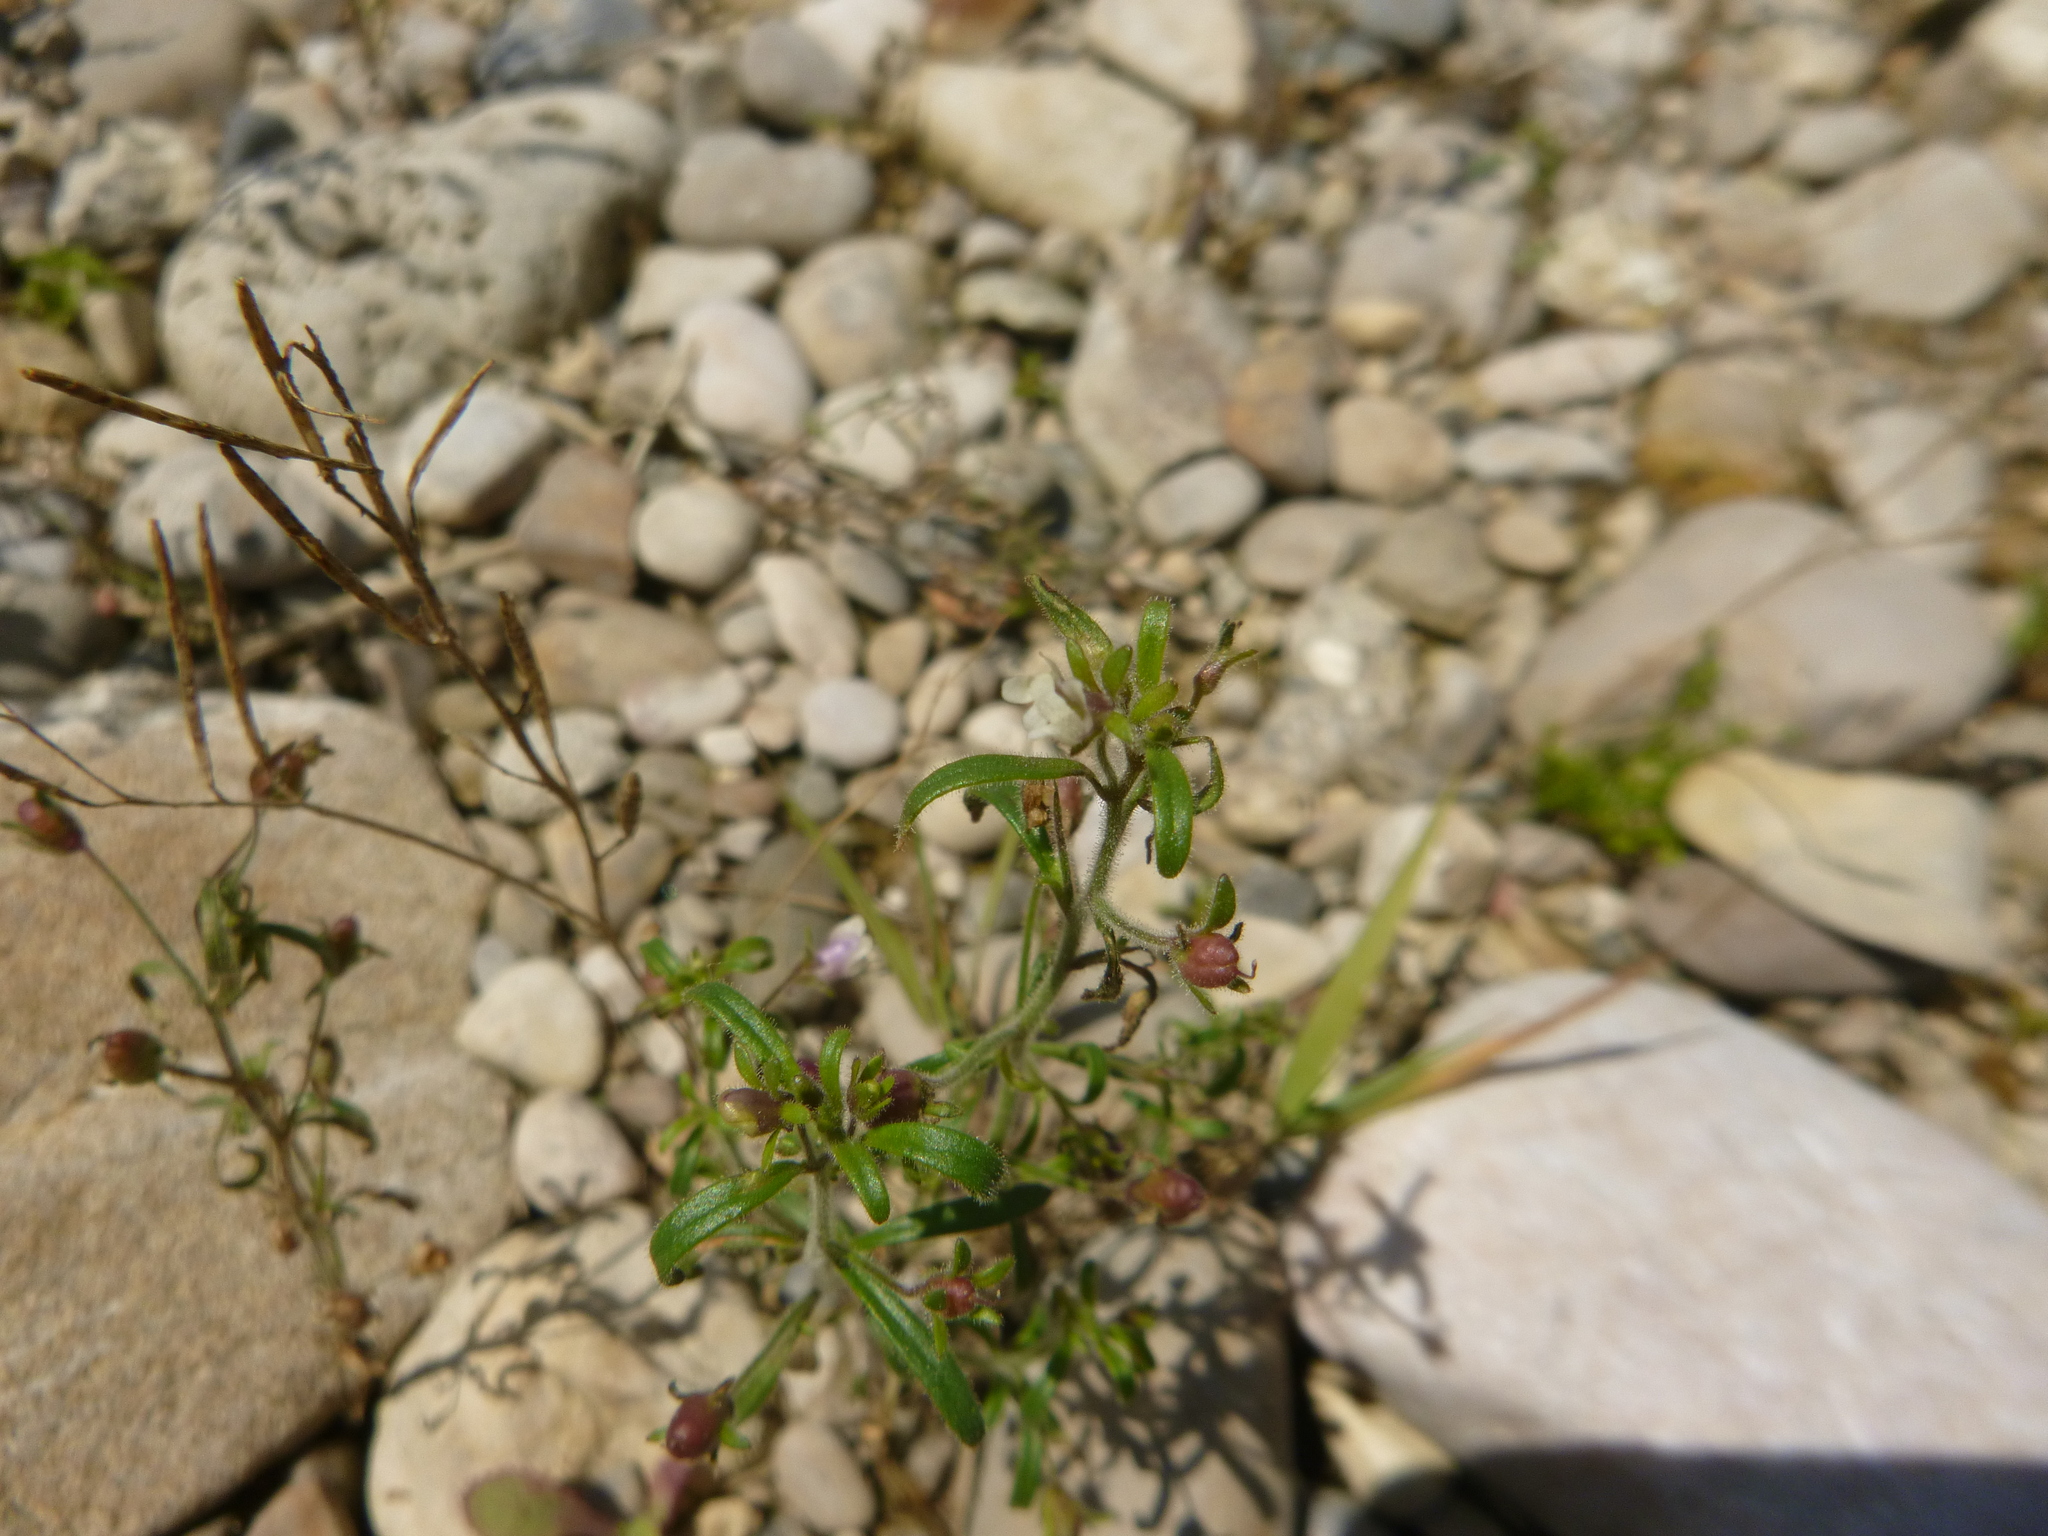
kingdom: Plantae
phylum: Tracheophyta
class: Magnoliopsida
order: Lamiales
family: Plantaginaceae
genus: Chaenorhinum
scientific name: Chaenorhinum minus
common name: Dwarf snapdragon
